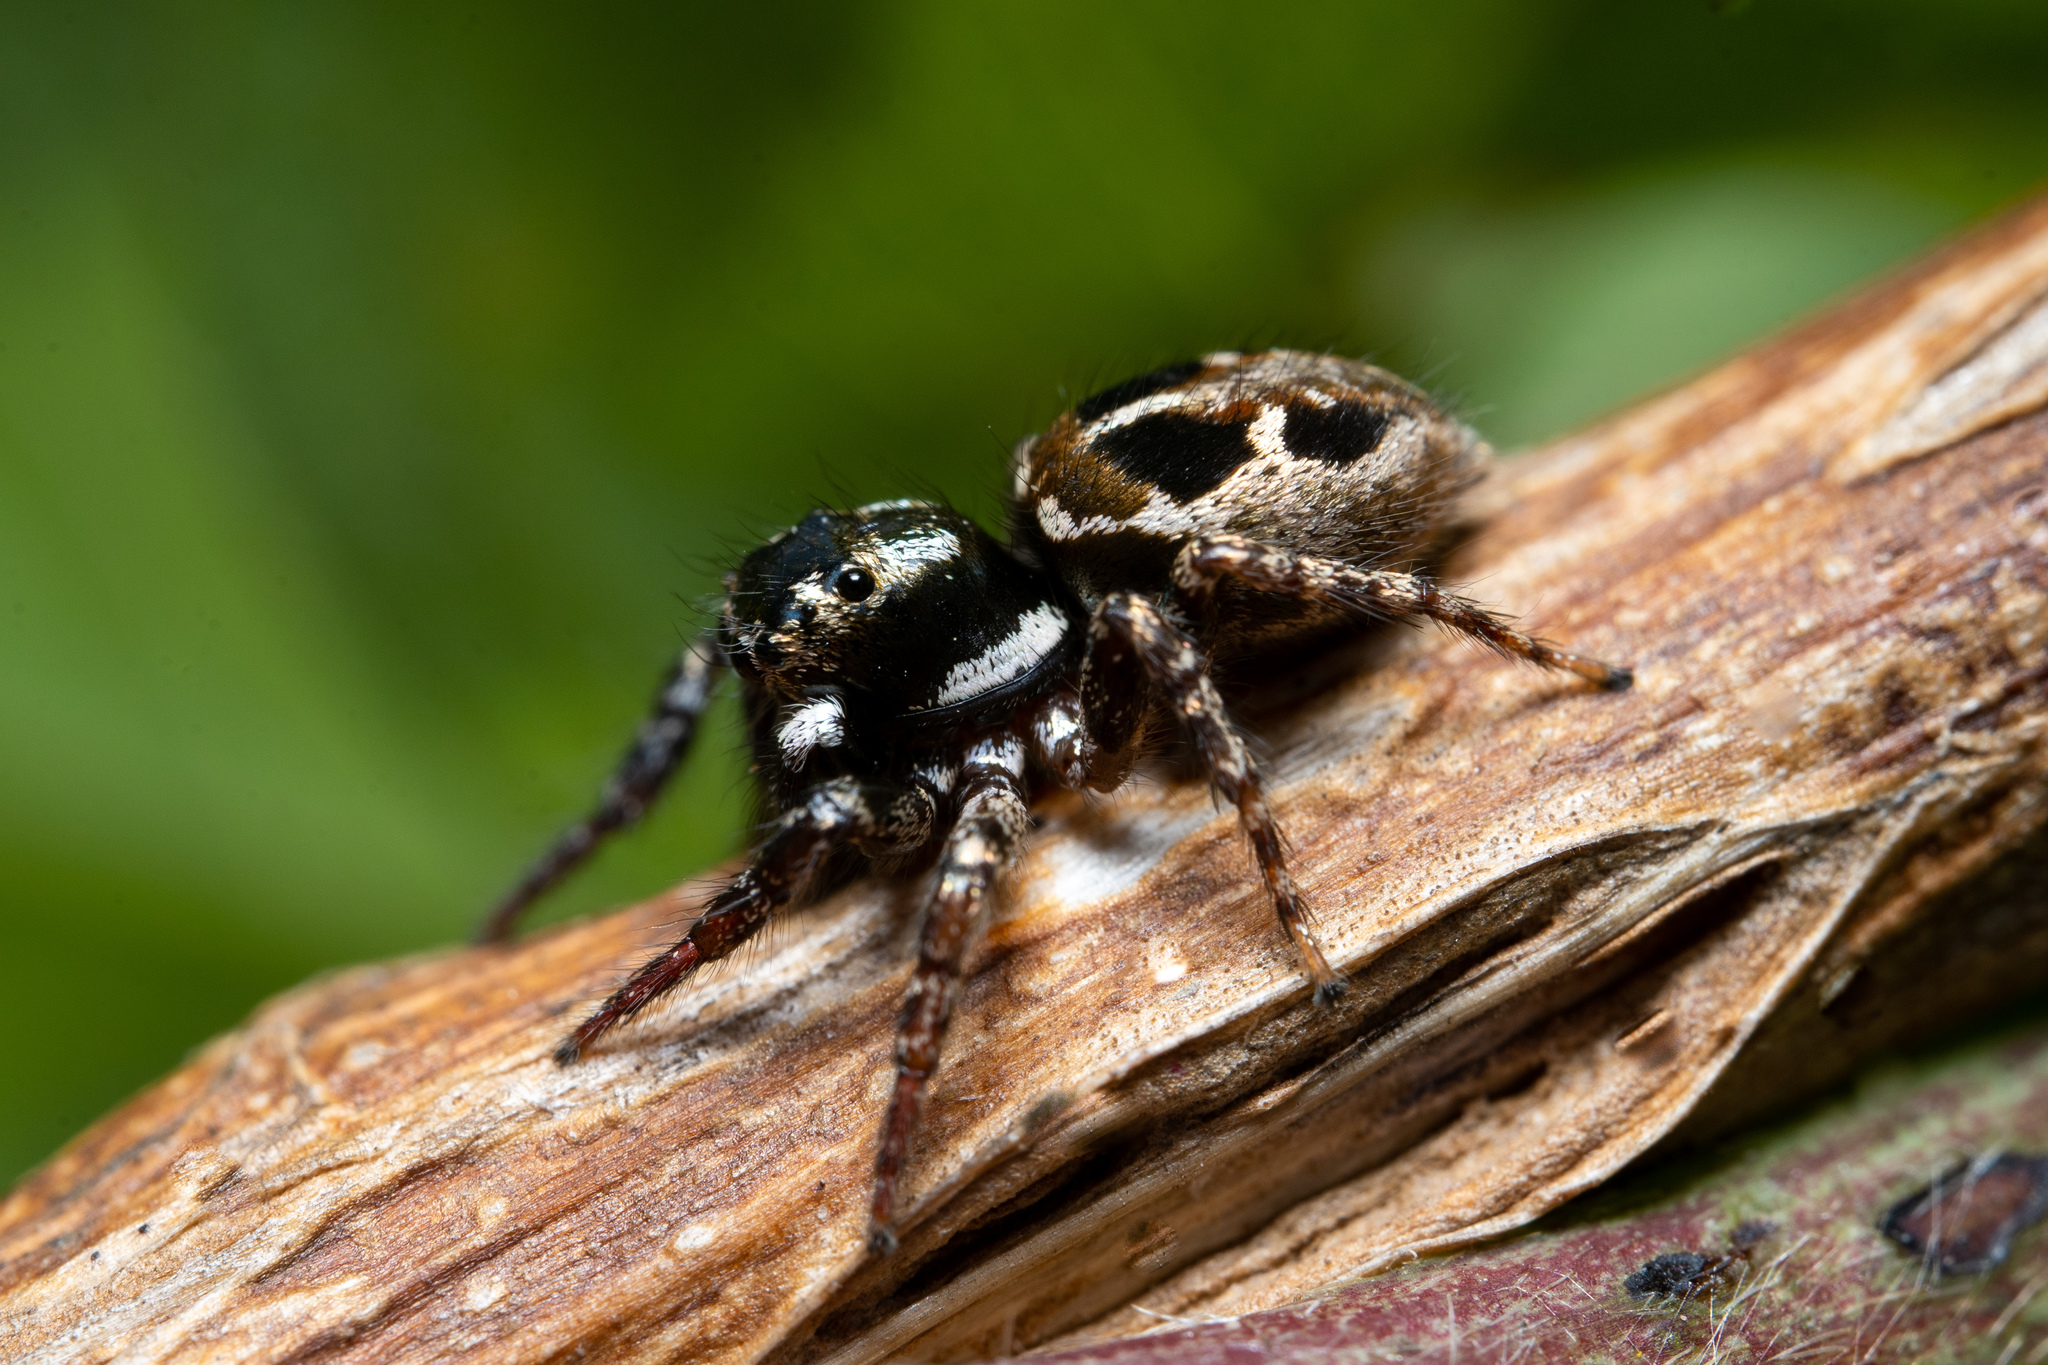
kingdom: Animalia
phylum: Arthropoda
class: Arachnida
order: Araneae
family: Salticidae
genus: Anasaitis
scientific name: Anasaitis canosa
